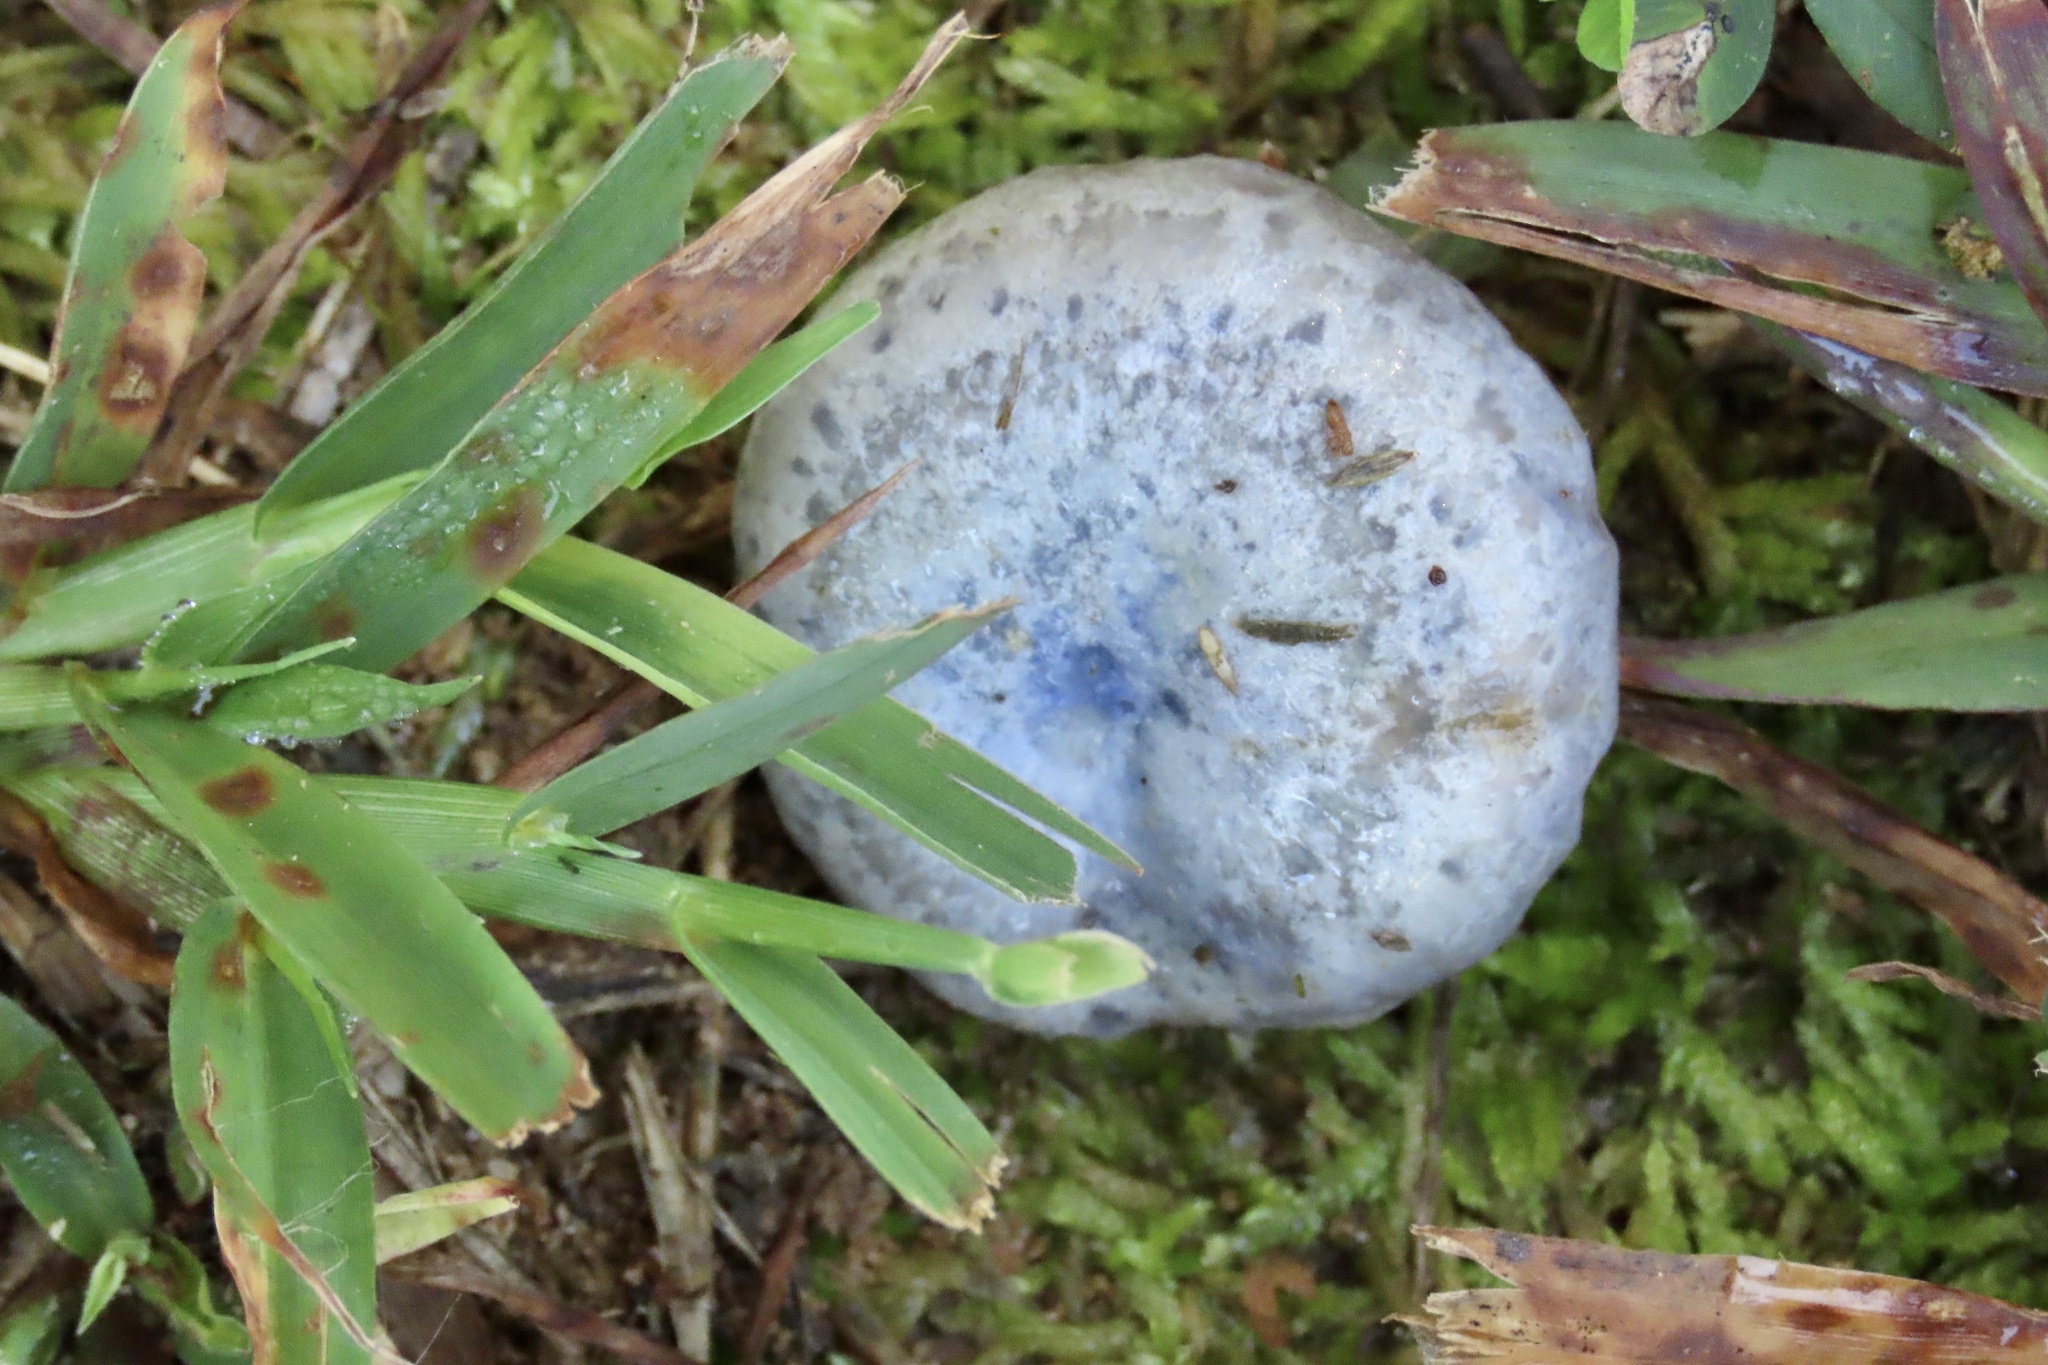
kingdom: Fungi
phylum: Basidiomycota
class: Agaricomycetes
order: Russulales
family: Russulaceae
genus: Lactarius
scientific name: Lactarius paradoxus
